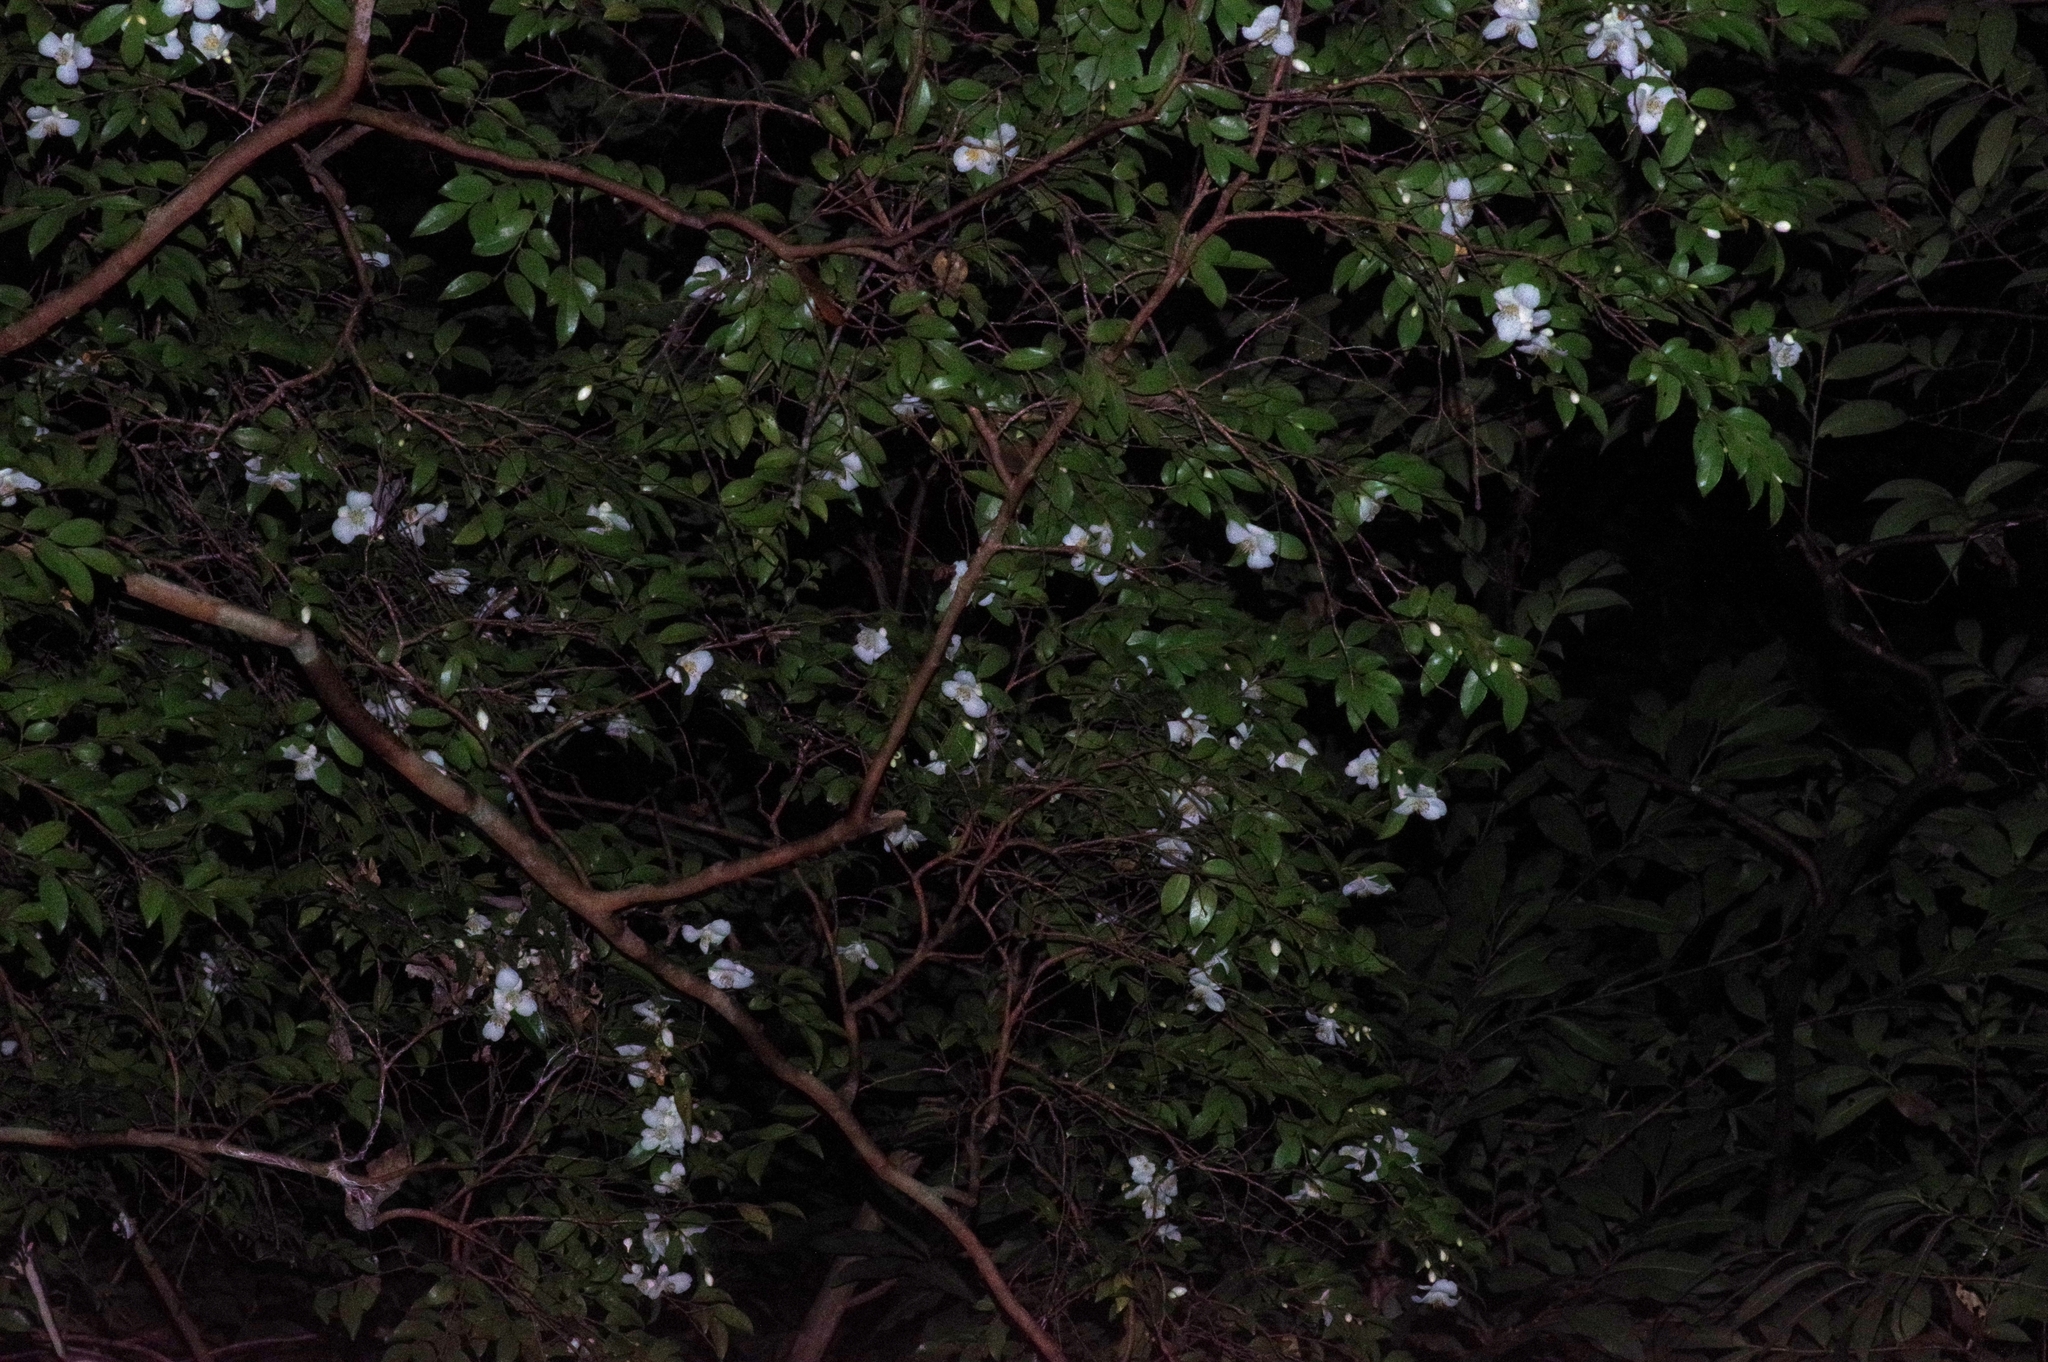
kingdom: Plantae
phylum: Tracheophyta
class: Magnoliopsida
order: Ericales
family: Theaceae
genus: Camellia
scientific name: Camellia lutchuensis
